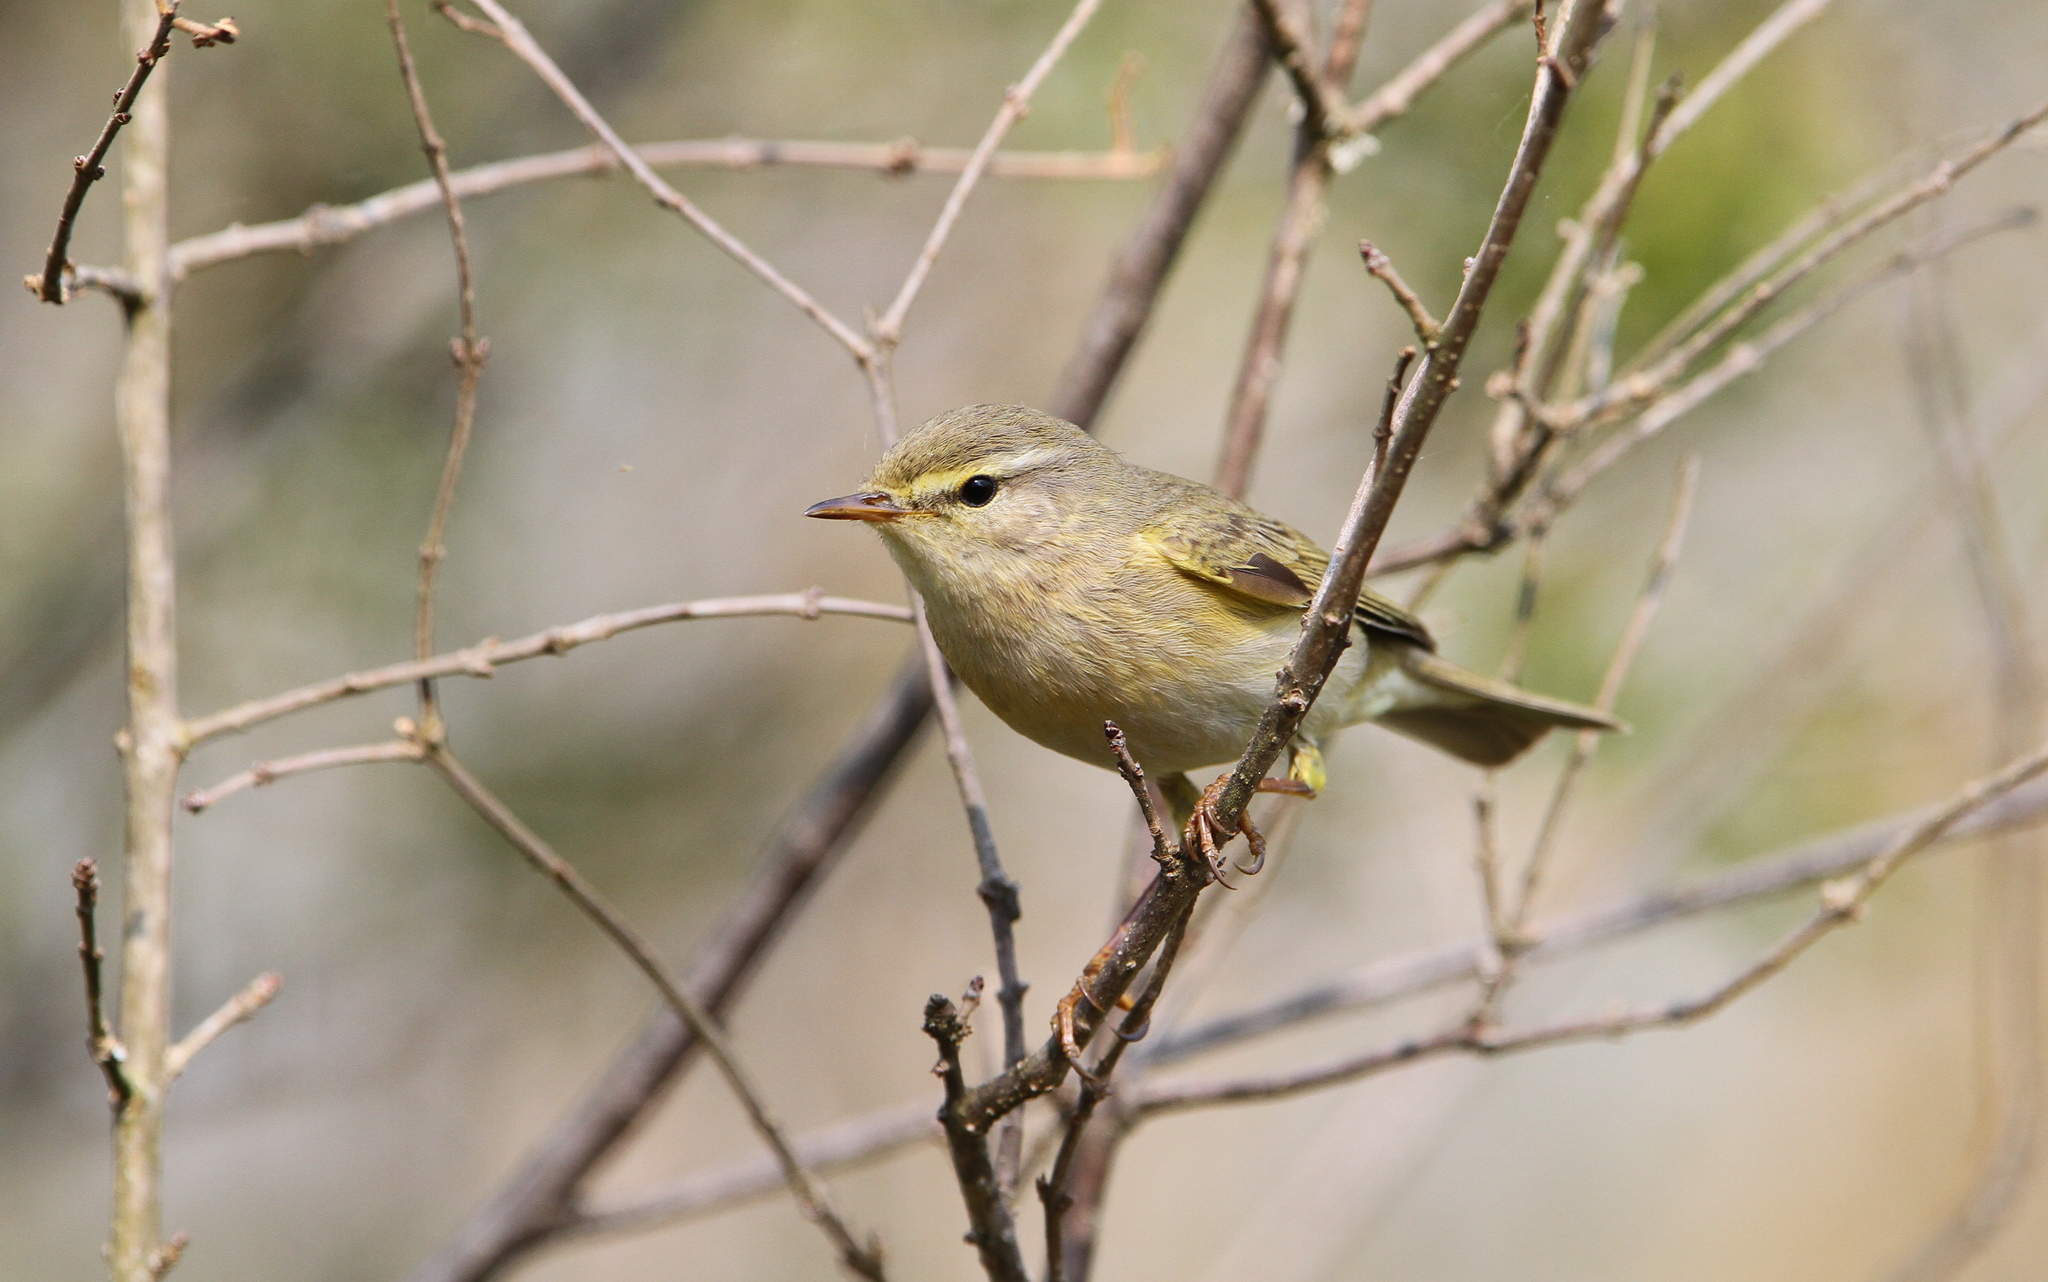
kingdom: Animalia
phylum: Chordata
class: Aves
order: Passeriformes
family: Phylloscopidae
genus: Phylloscopus
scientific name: Phylloscopus trochilus
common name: Willow warbler
